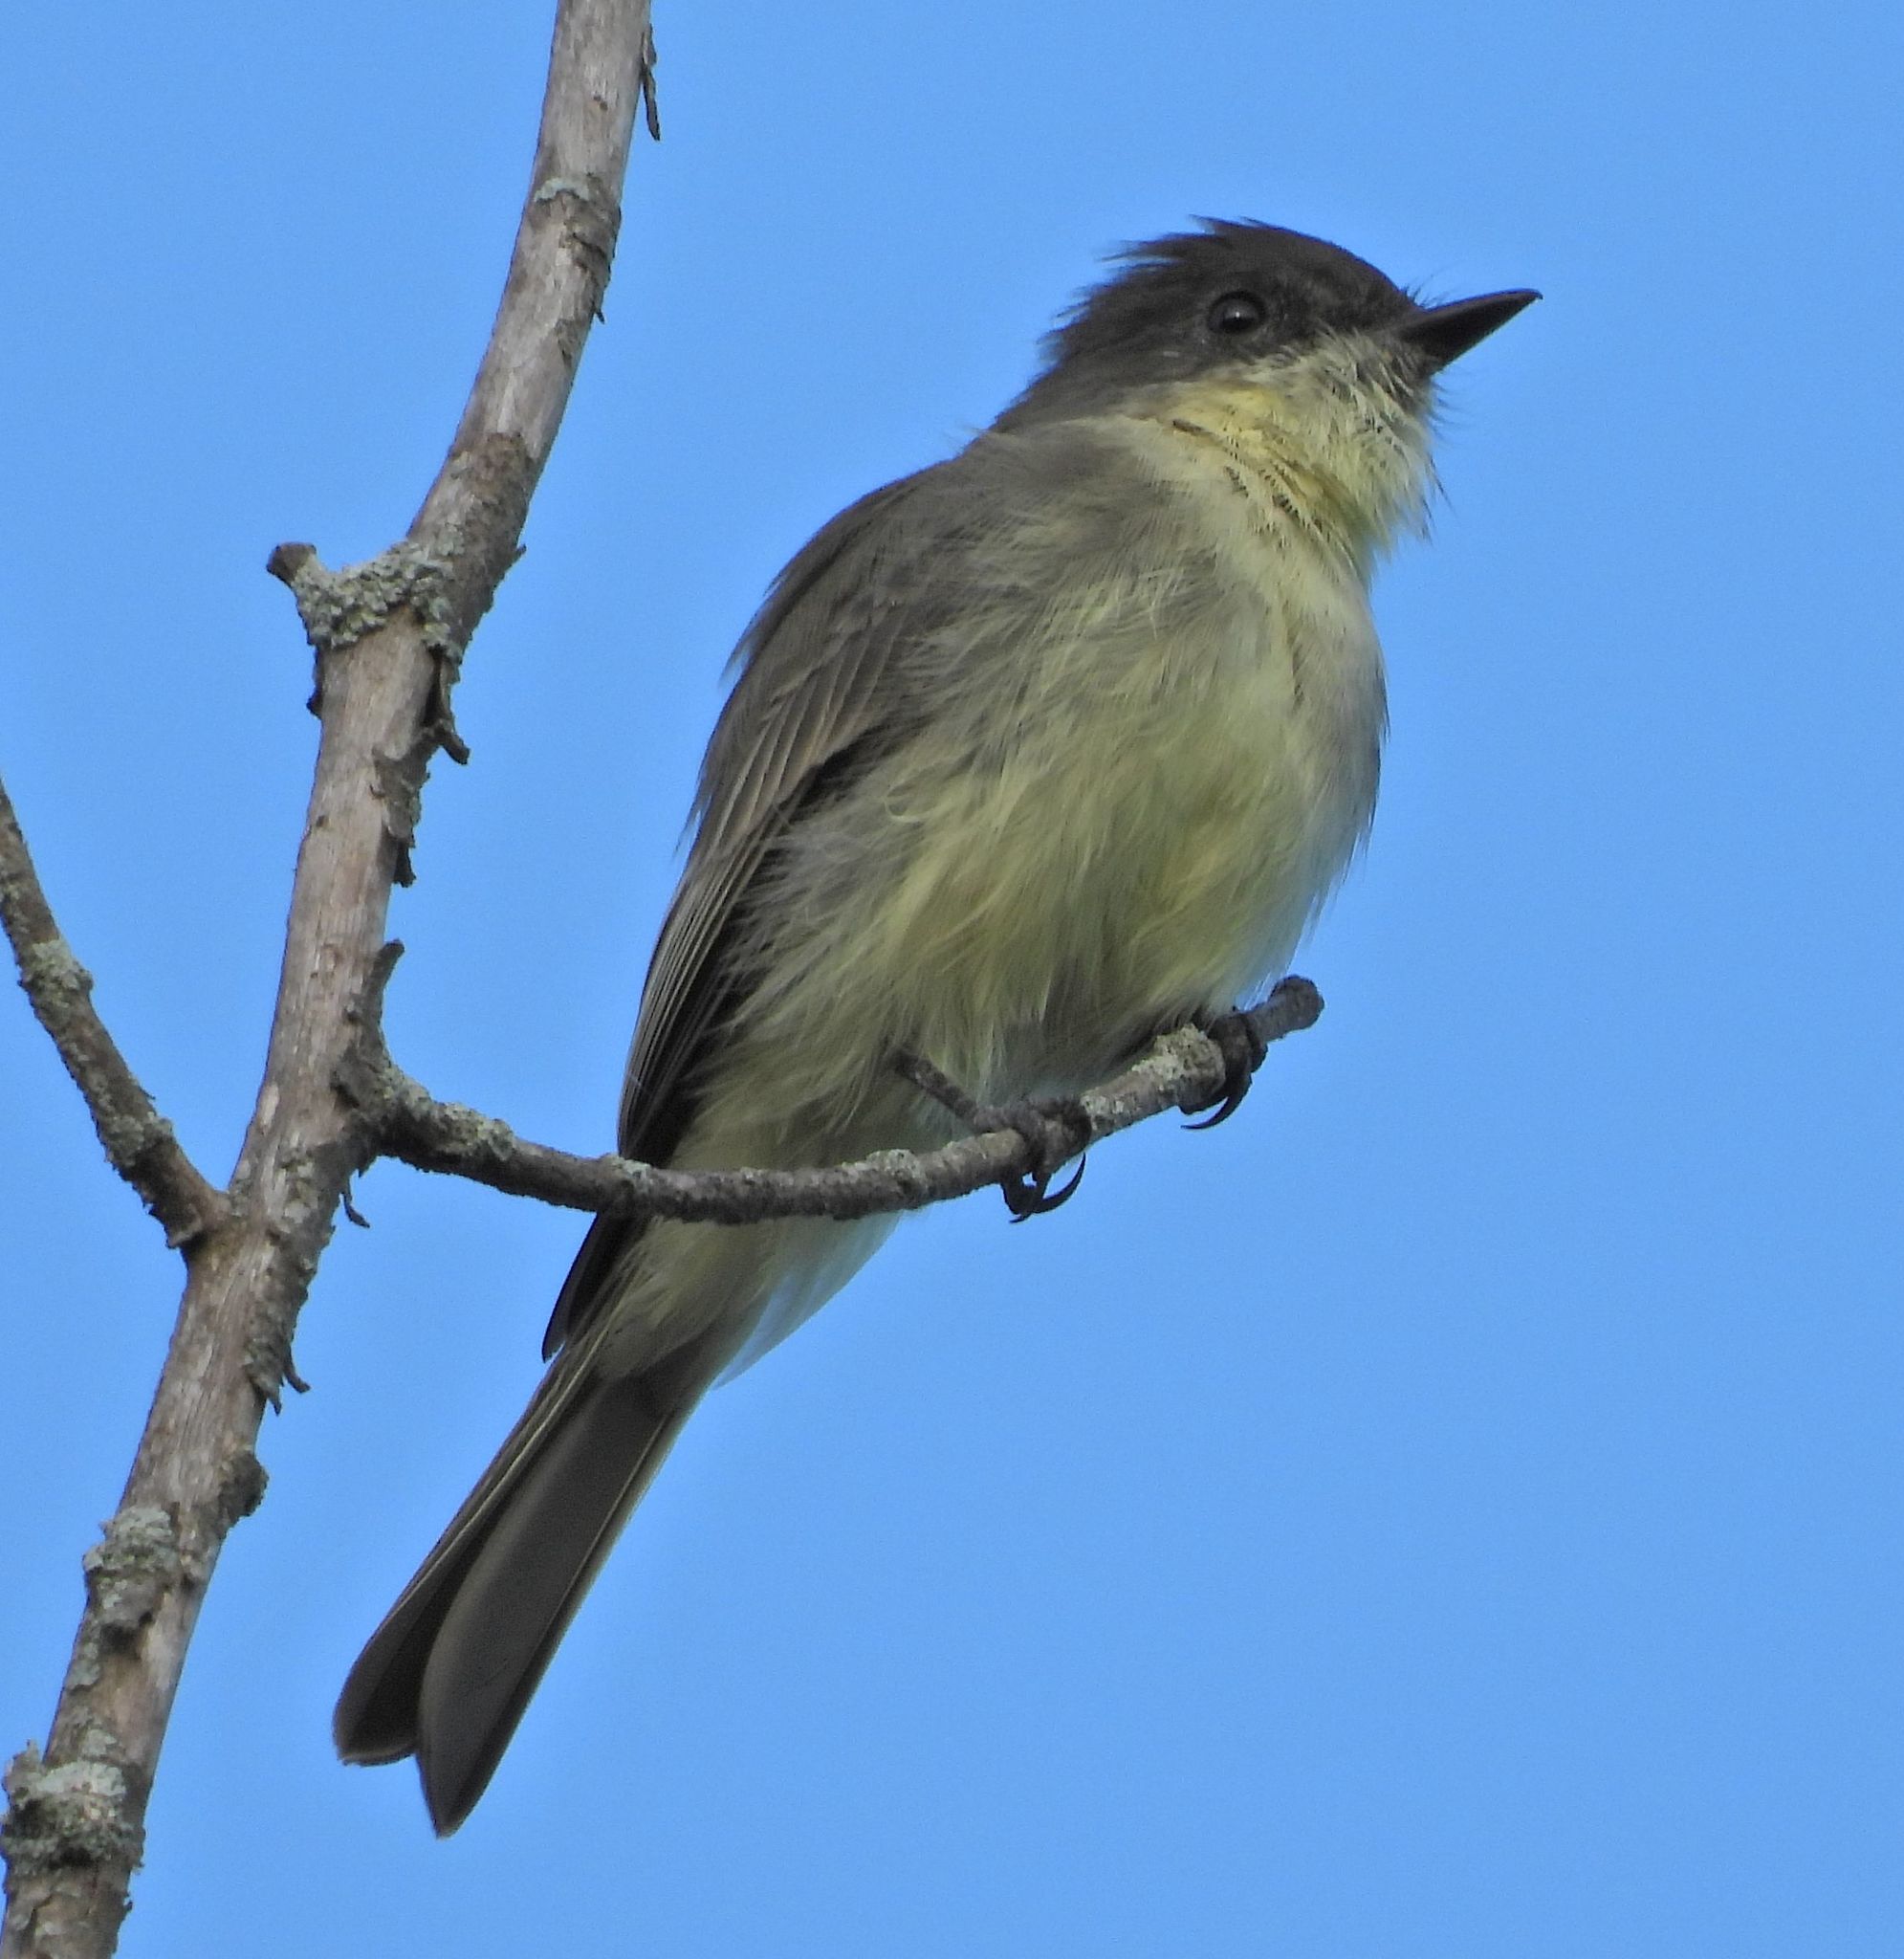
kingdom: Animalia
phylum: Chordata
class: Aves
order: Passeriformes
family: Tyrannidae
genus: Sayornis
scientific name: Sayornis phoebe
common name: Eastern phoebe
